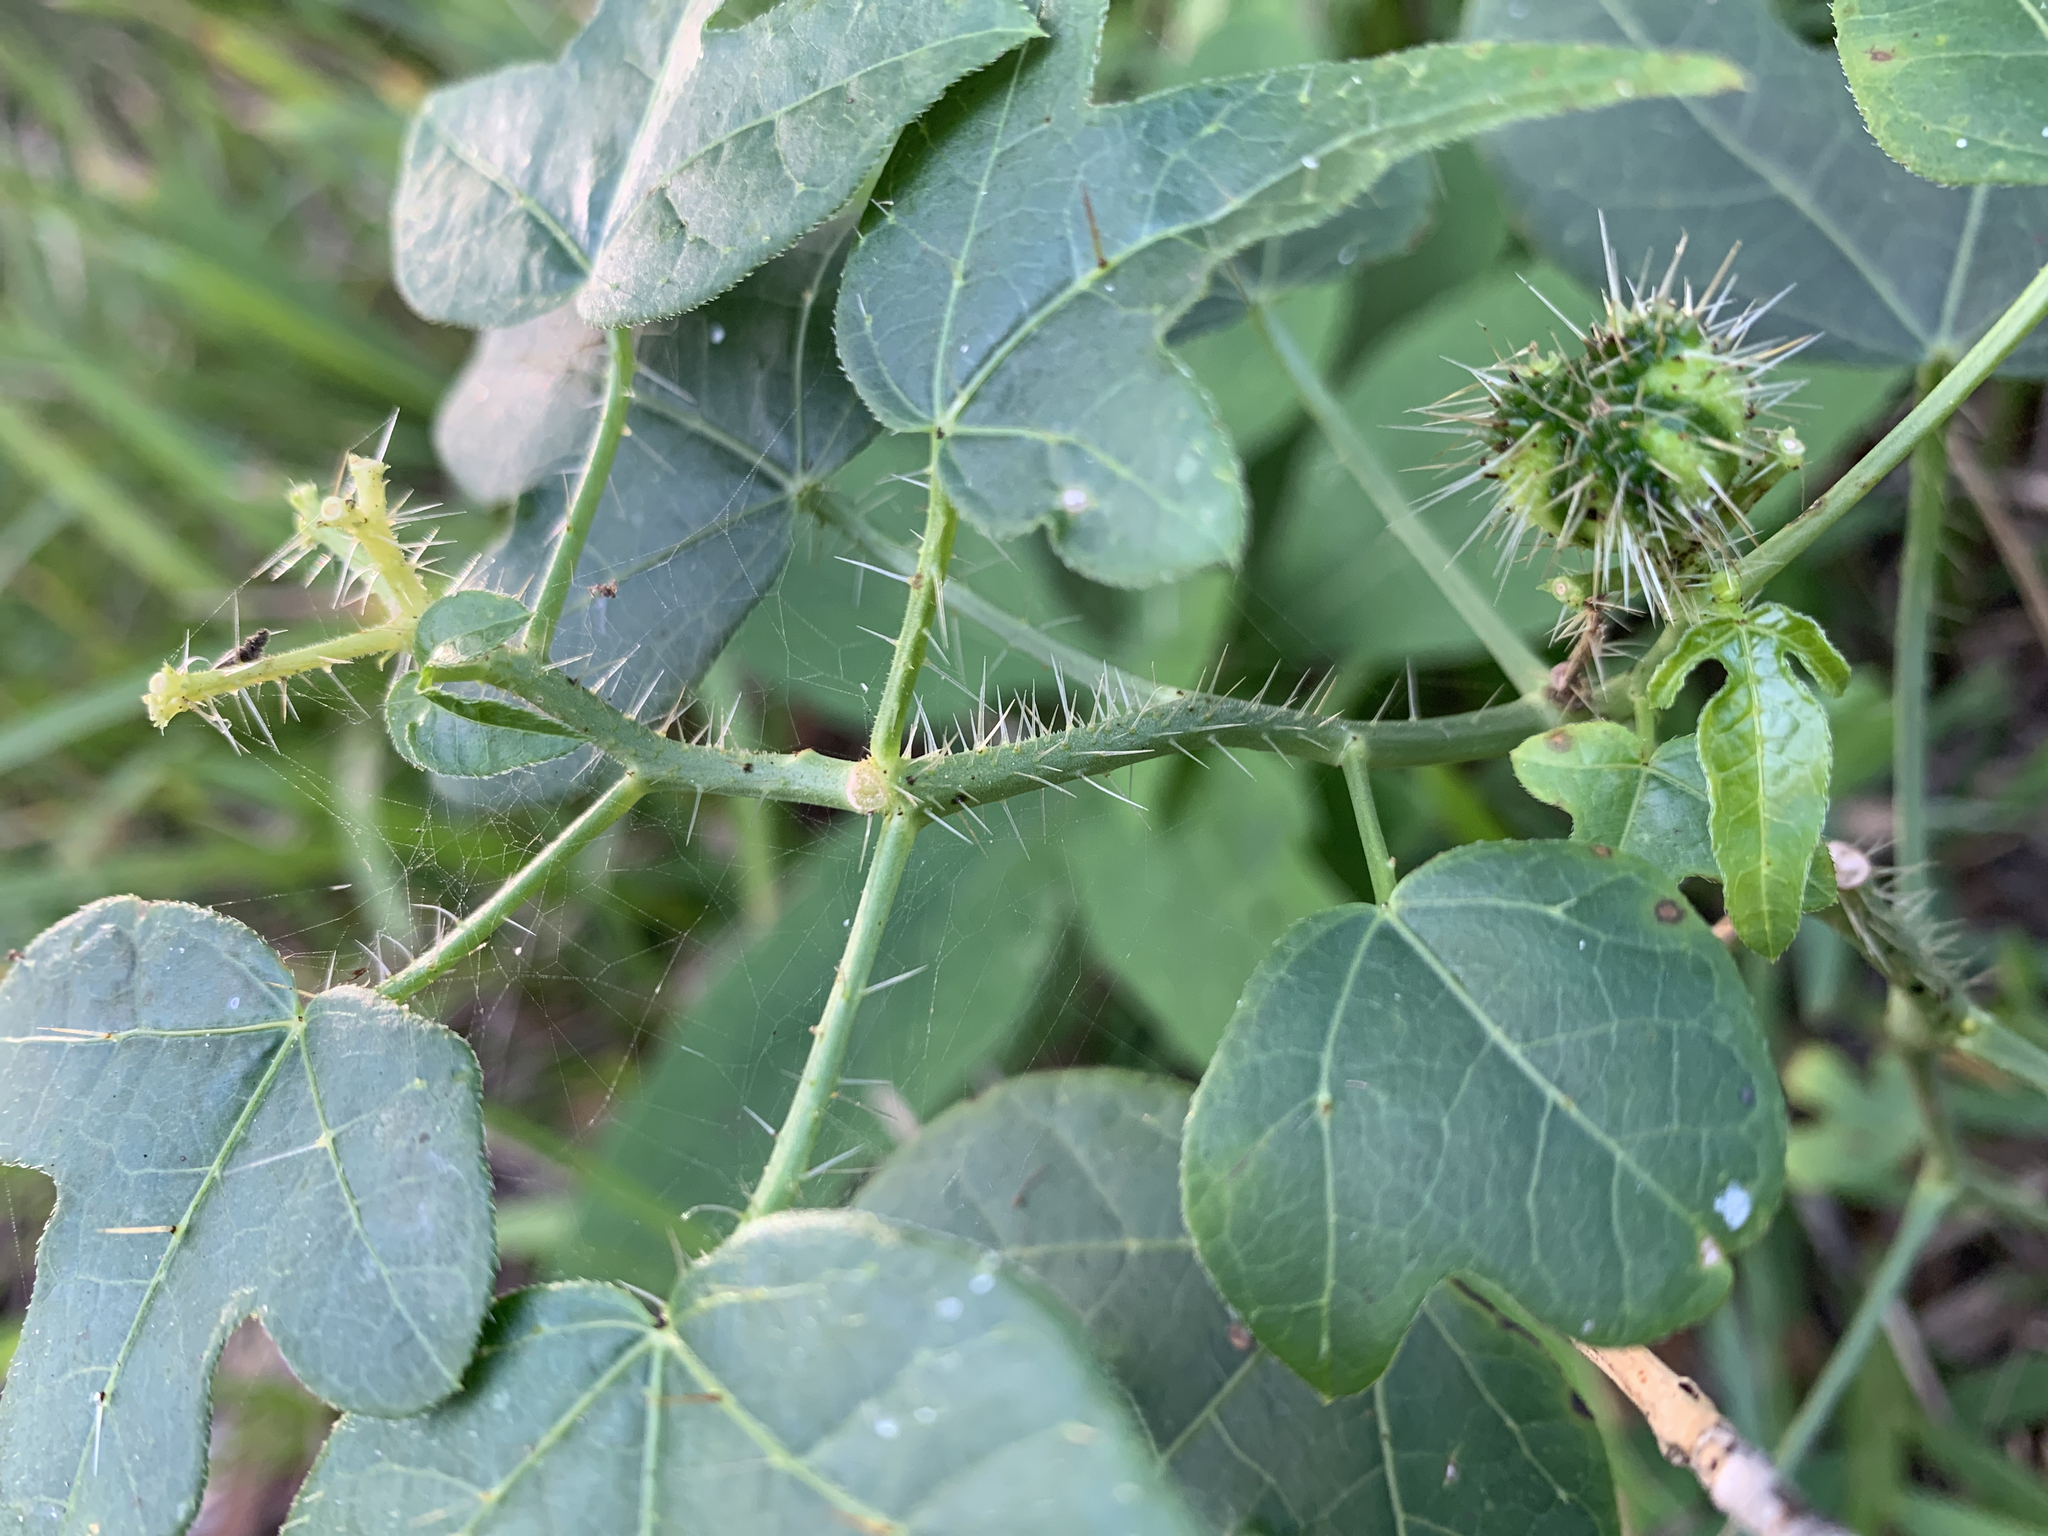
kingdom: Plantae
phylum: Tracheophyta
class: Magnoliopsida
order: Malpighiales
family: Euphorbiaceae
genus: Cnidoscolus
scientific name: Cnidoscolus stimulosus
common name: Bull-nettle
